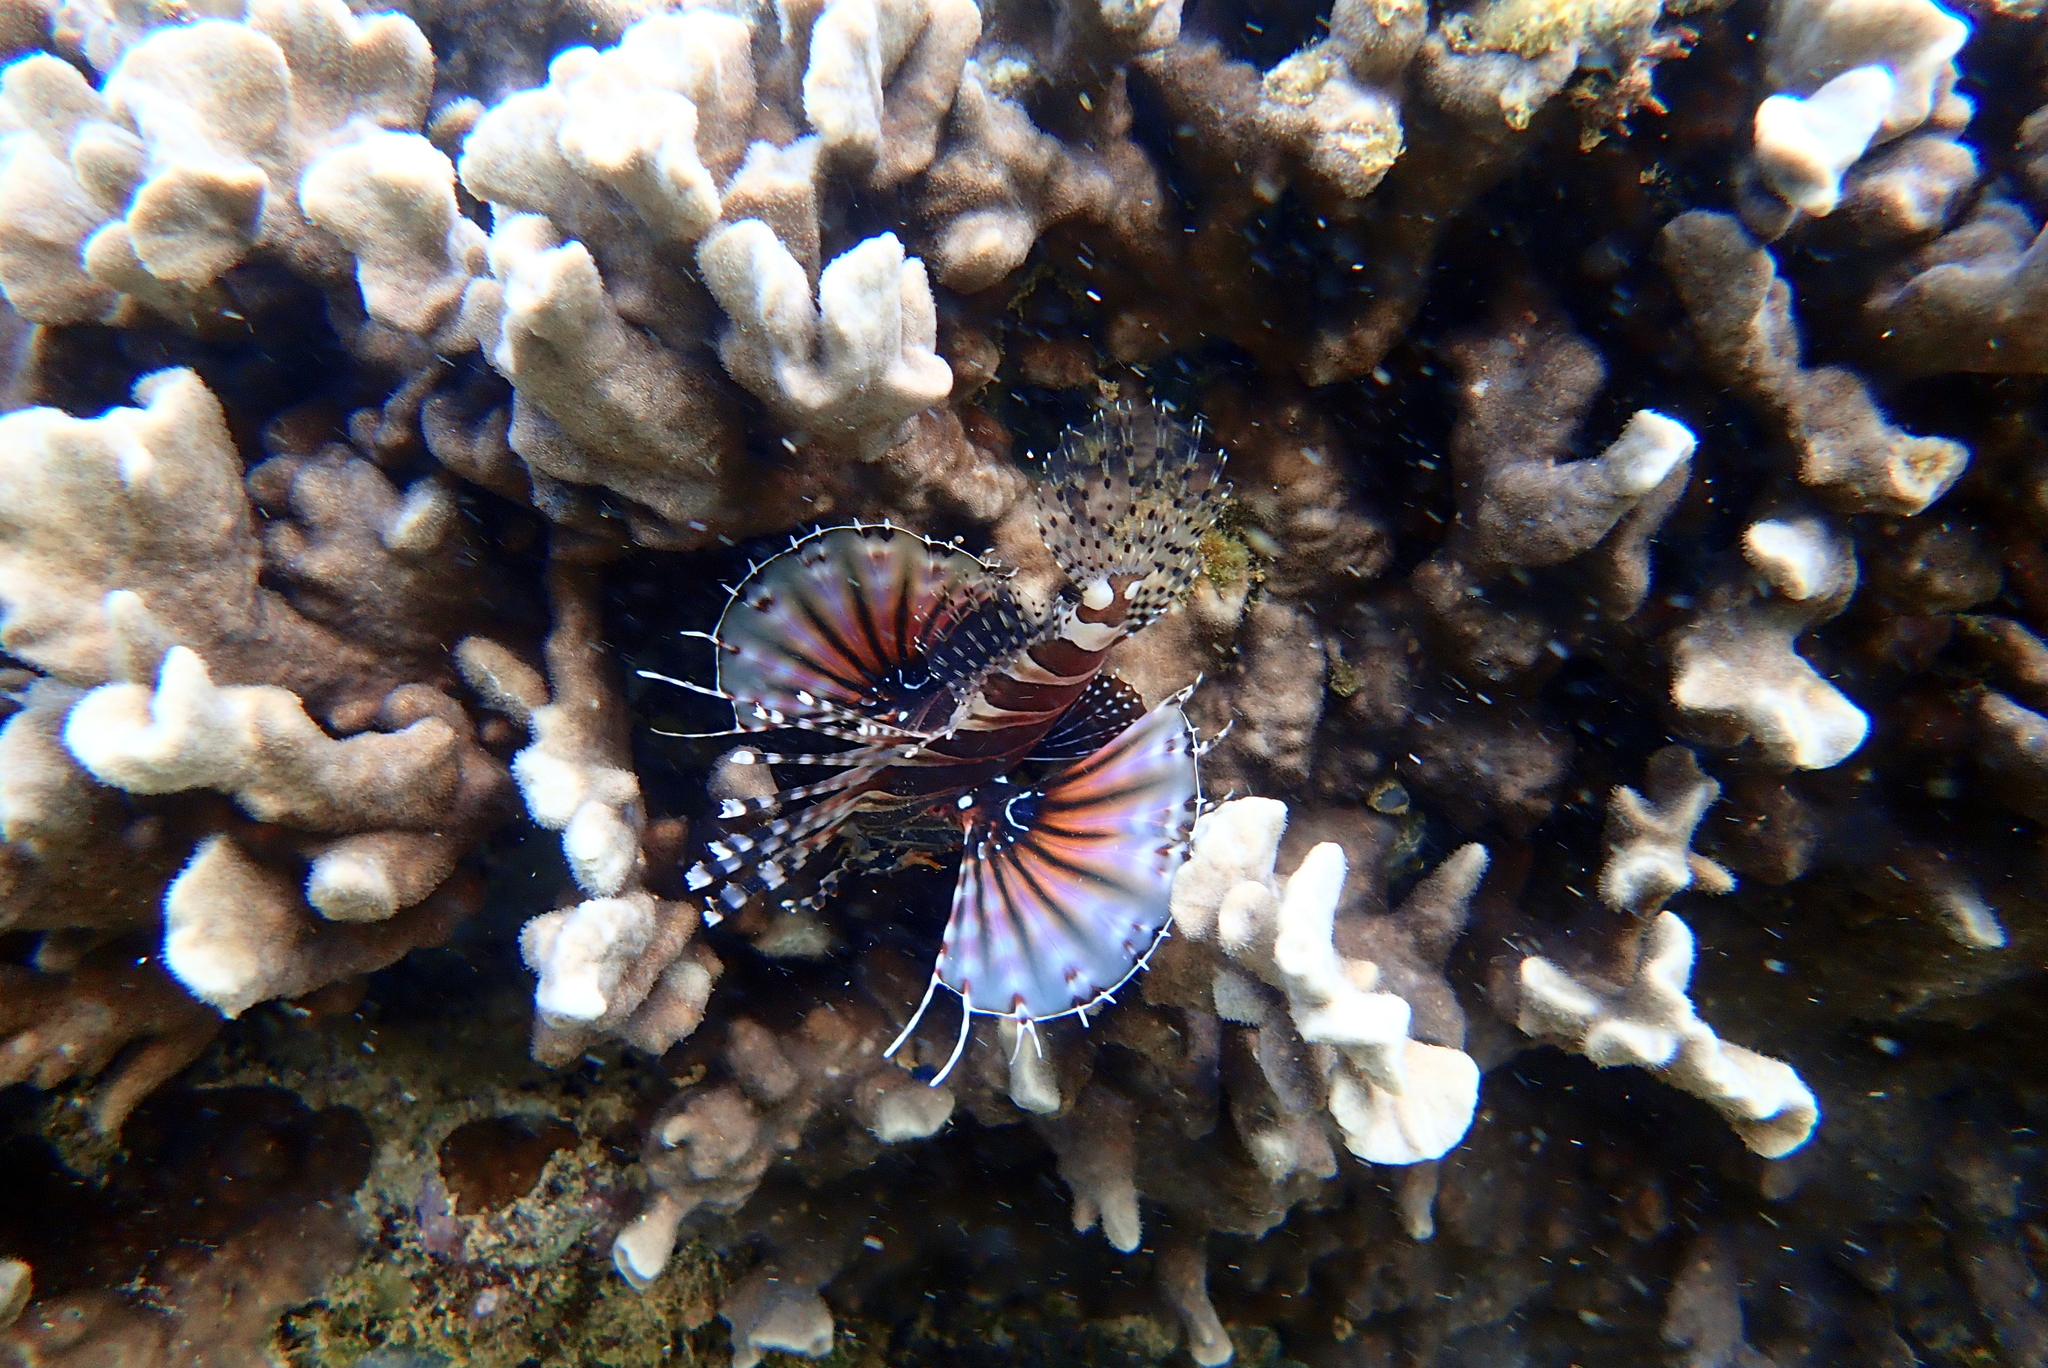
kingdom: Animalia
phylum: Chordata
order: Scorpaeniformes
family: Scorpaenidae
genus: Dendrochirus
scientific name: Dendrochirus zebra
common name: Zebra lionfish
